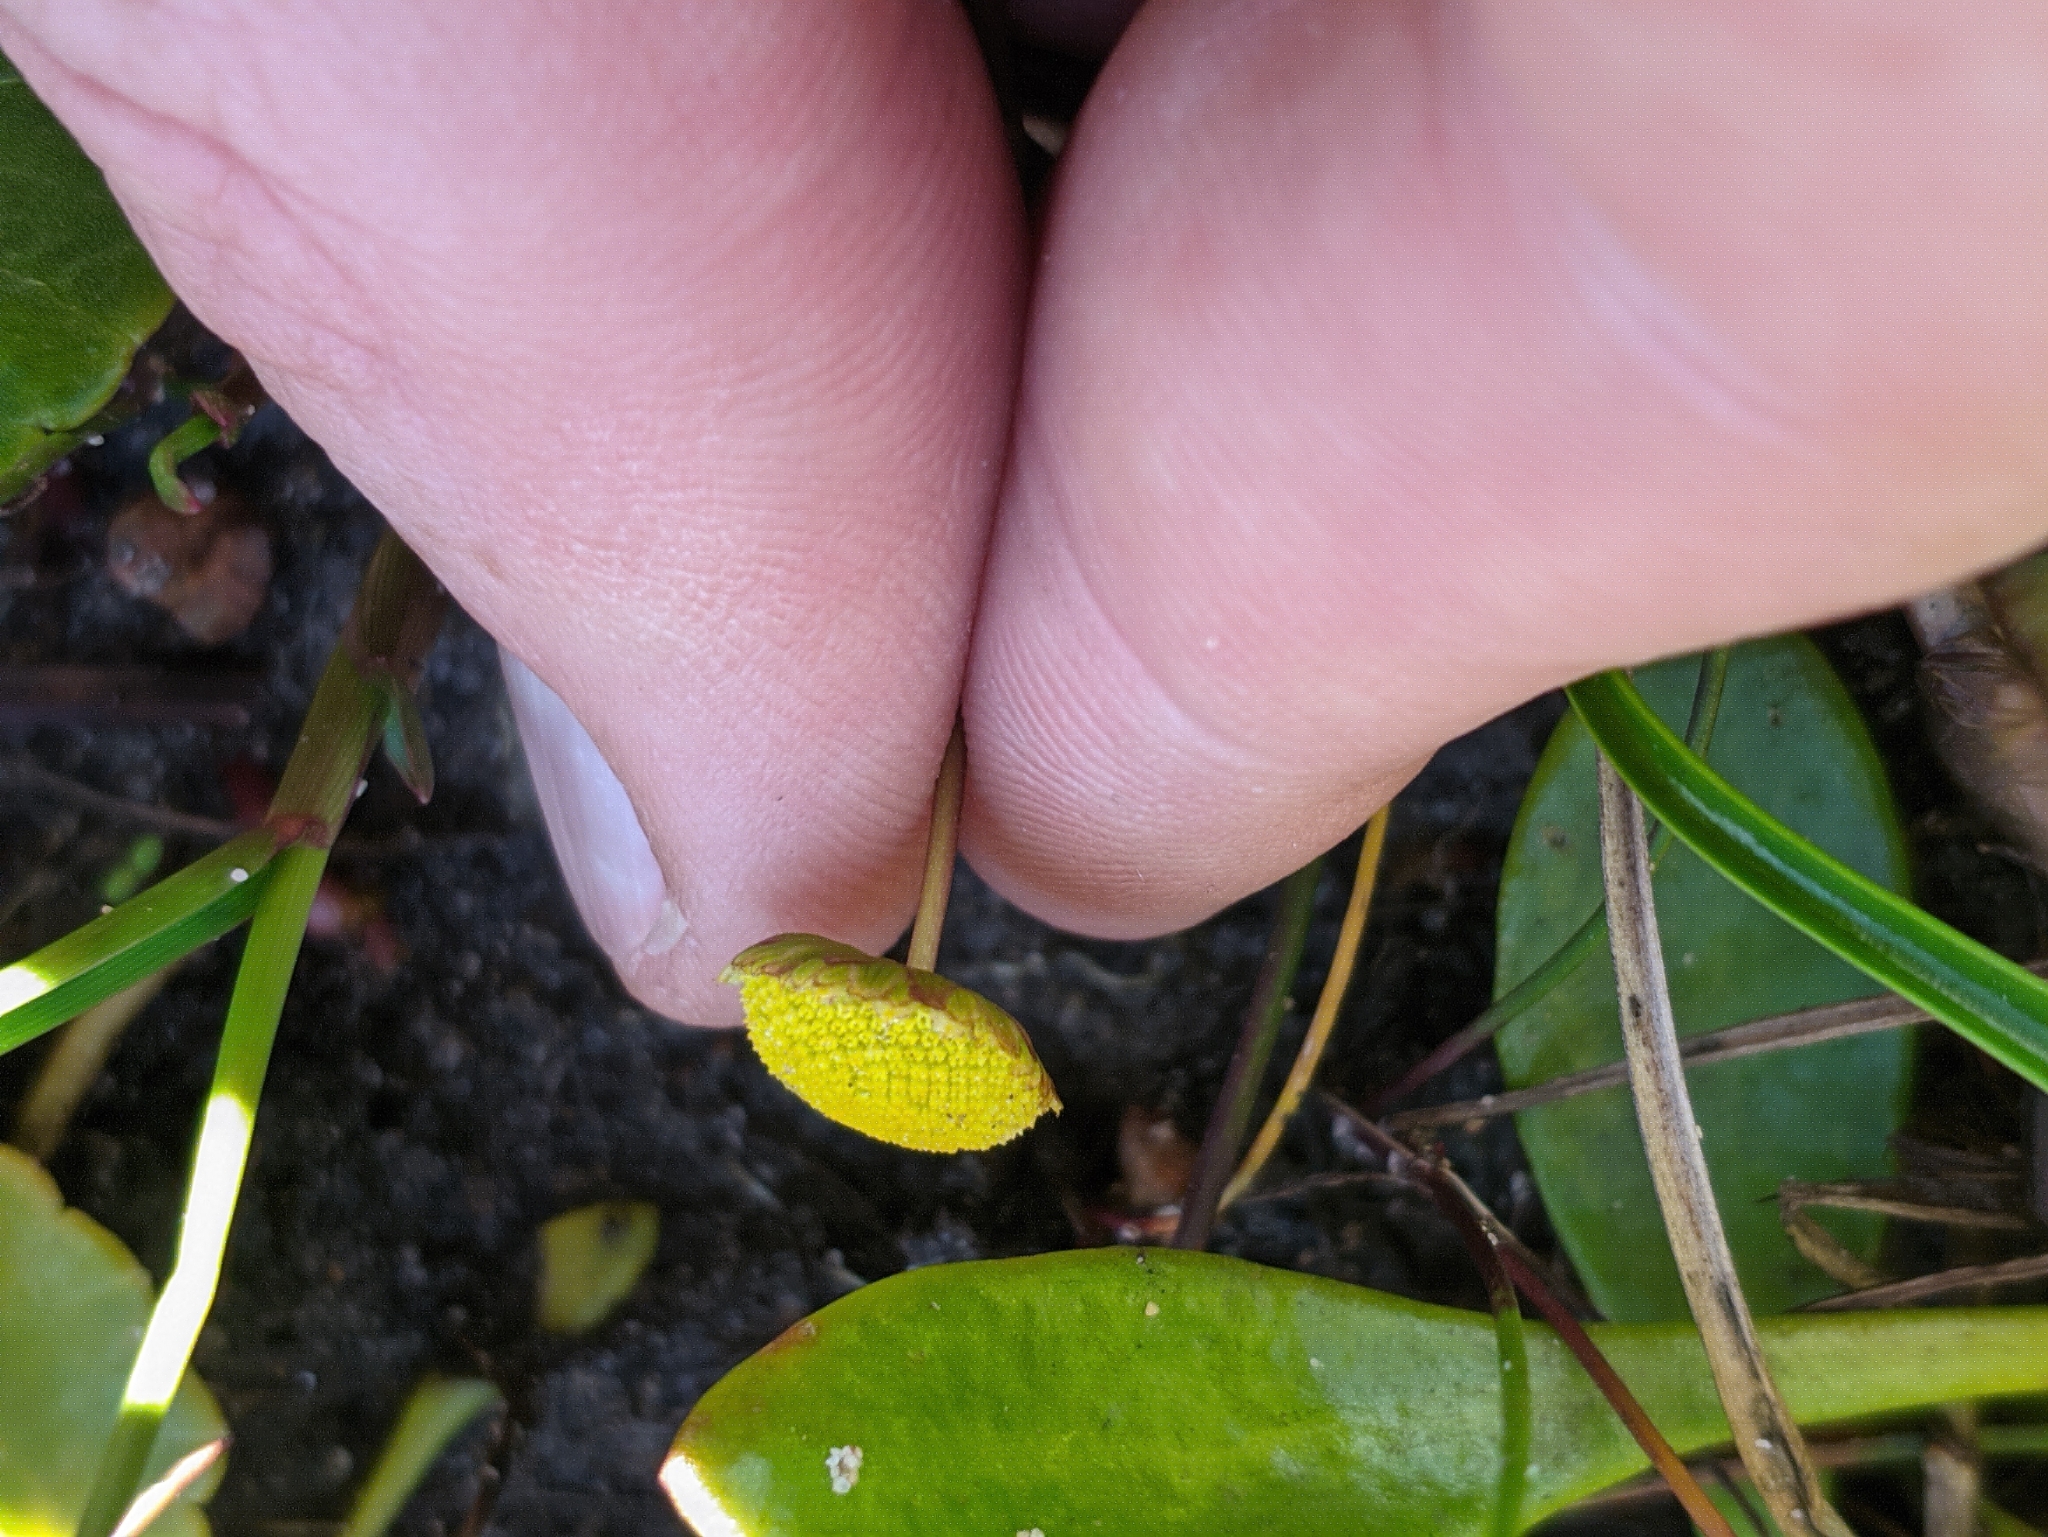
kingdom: Plantae
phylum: Tracheophyta
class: Magnoliopsida
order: Asterales
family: Asteraceae
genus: Cotula
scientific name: Cotula coronopifolia
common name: Buttonweed
